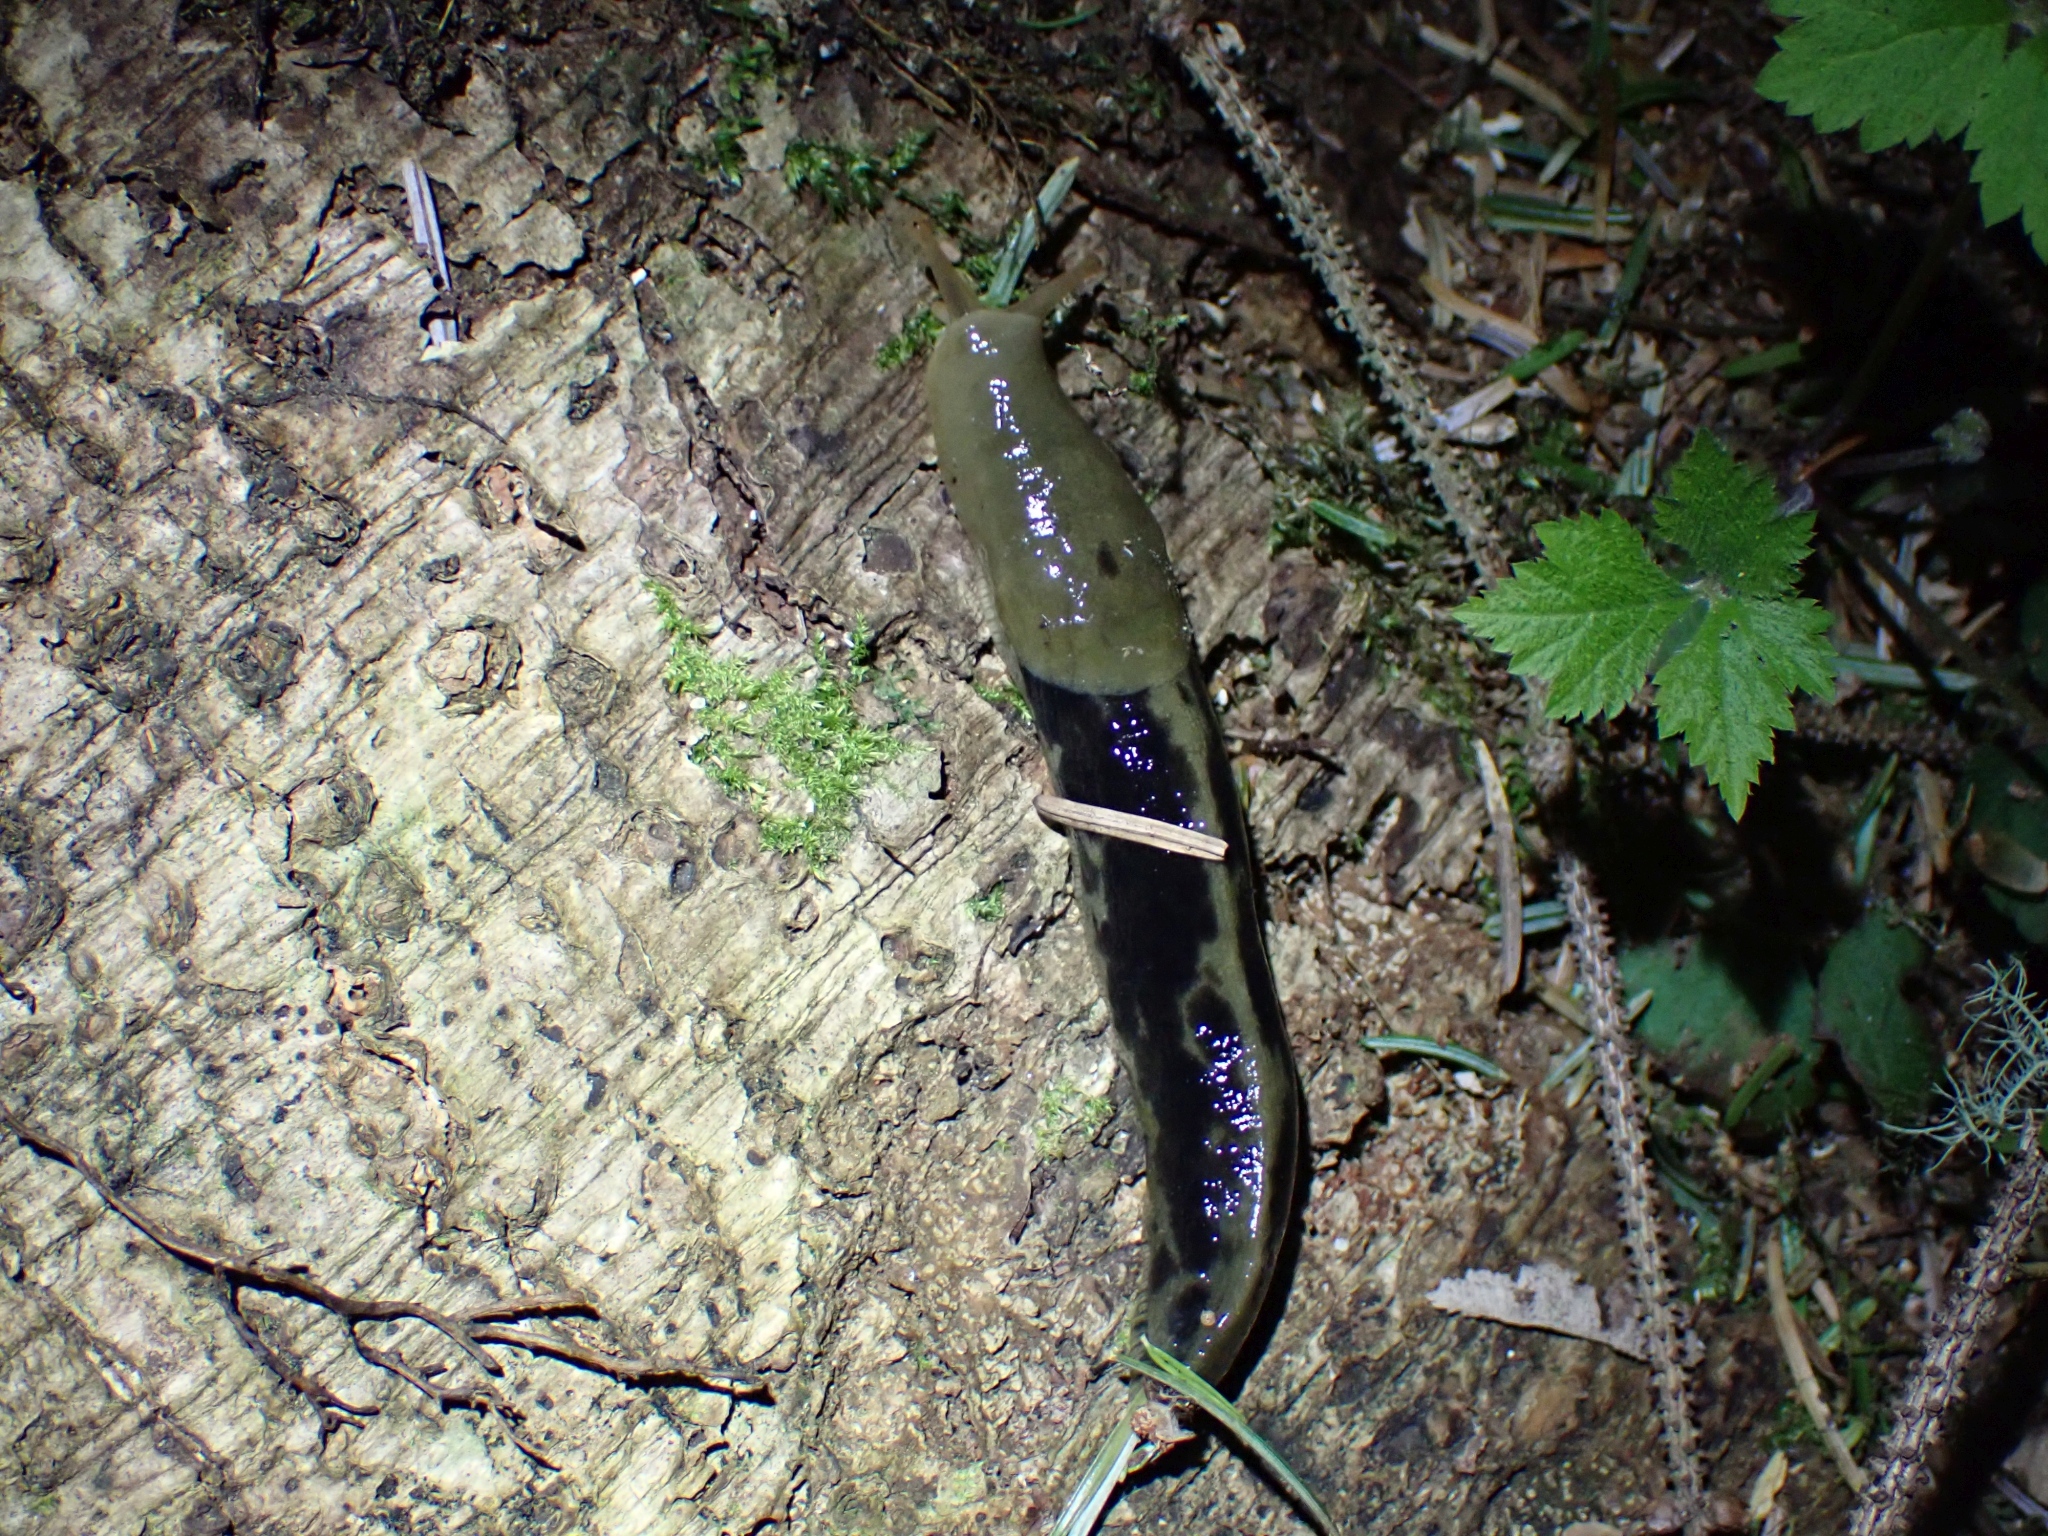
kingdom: Animalia
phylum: Mollusca
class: Gastropoda
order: Stylommatophora
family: Ariolimacidae
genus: Ariolimax
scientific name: Ariolimax columbianus
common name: Pacific banana slug
